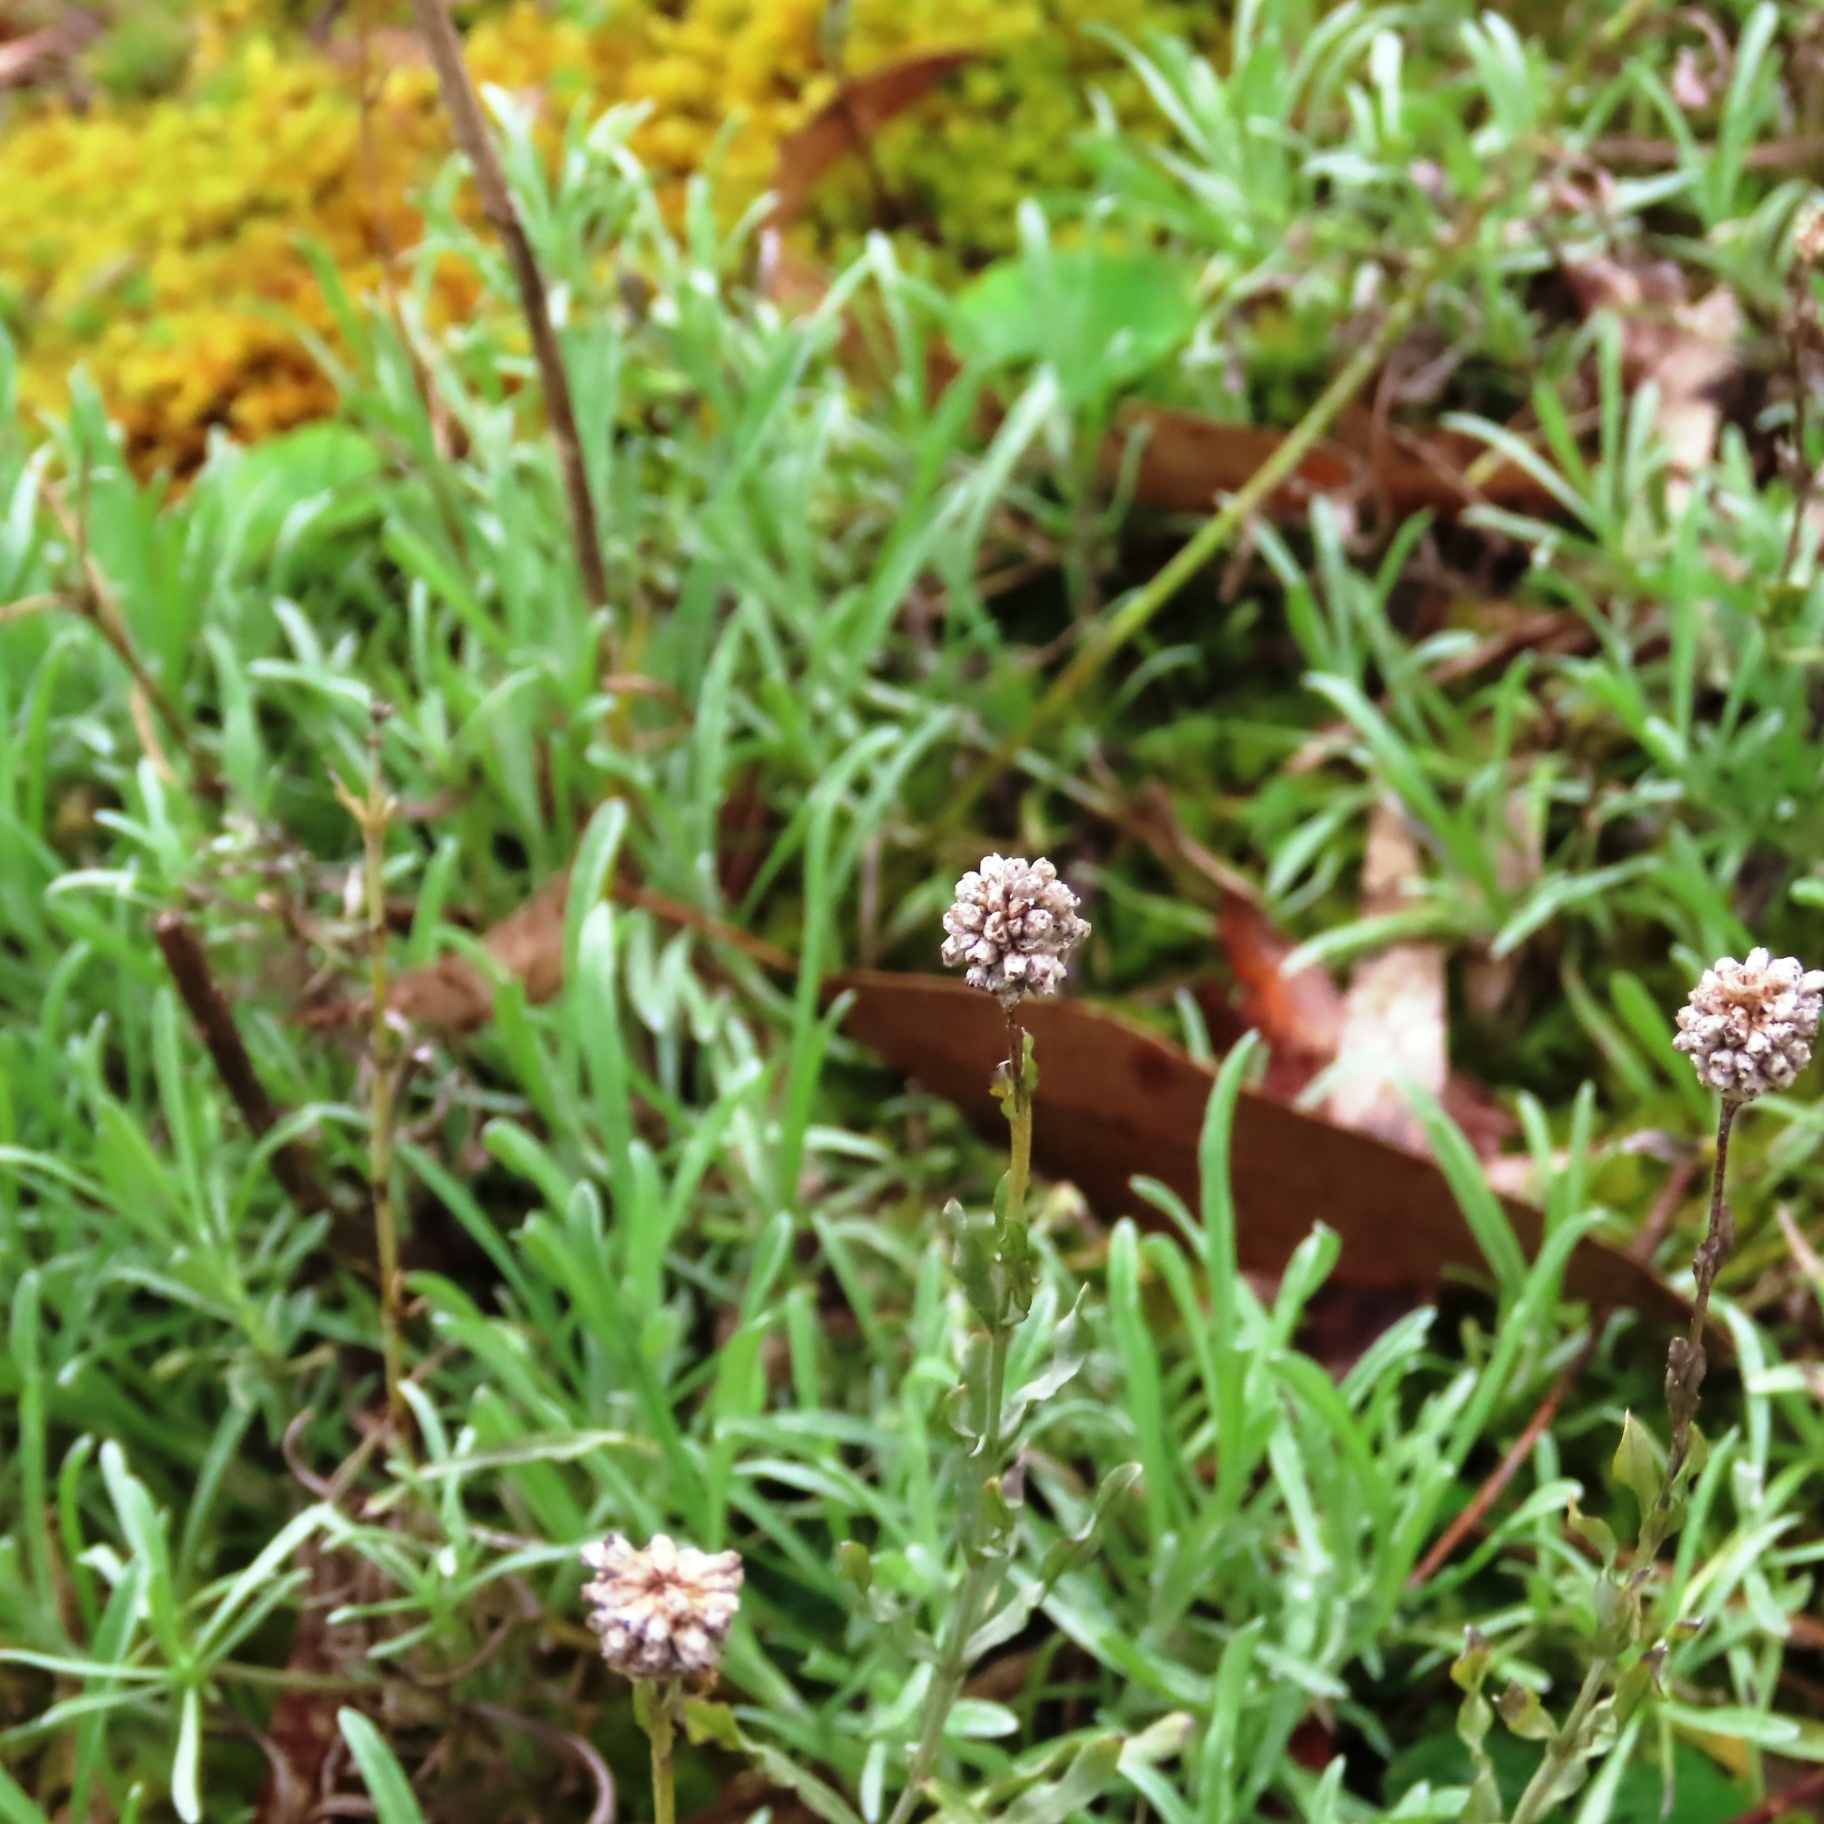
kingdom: Plantae
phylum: Tracheophyta
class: Magnoliopsida
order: Asterales
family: Asteraceae
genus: Calocephalus
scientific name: Calocephalus lacteus
